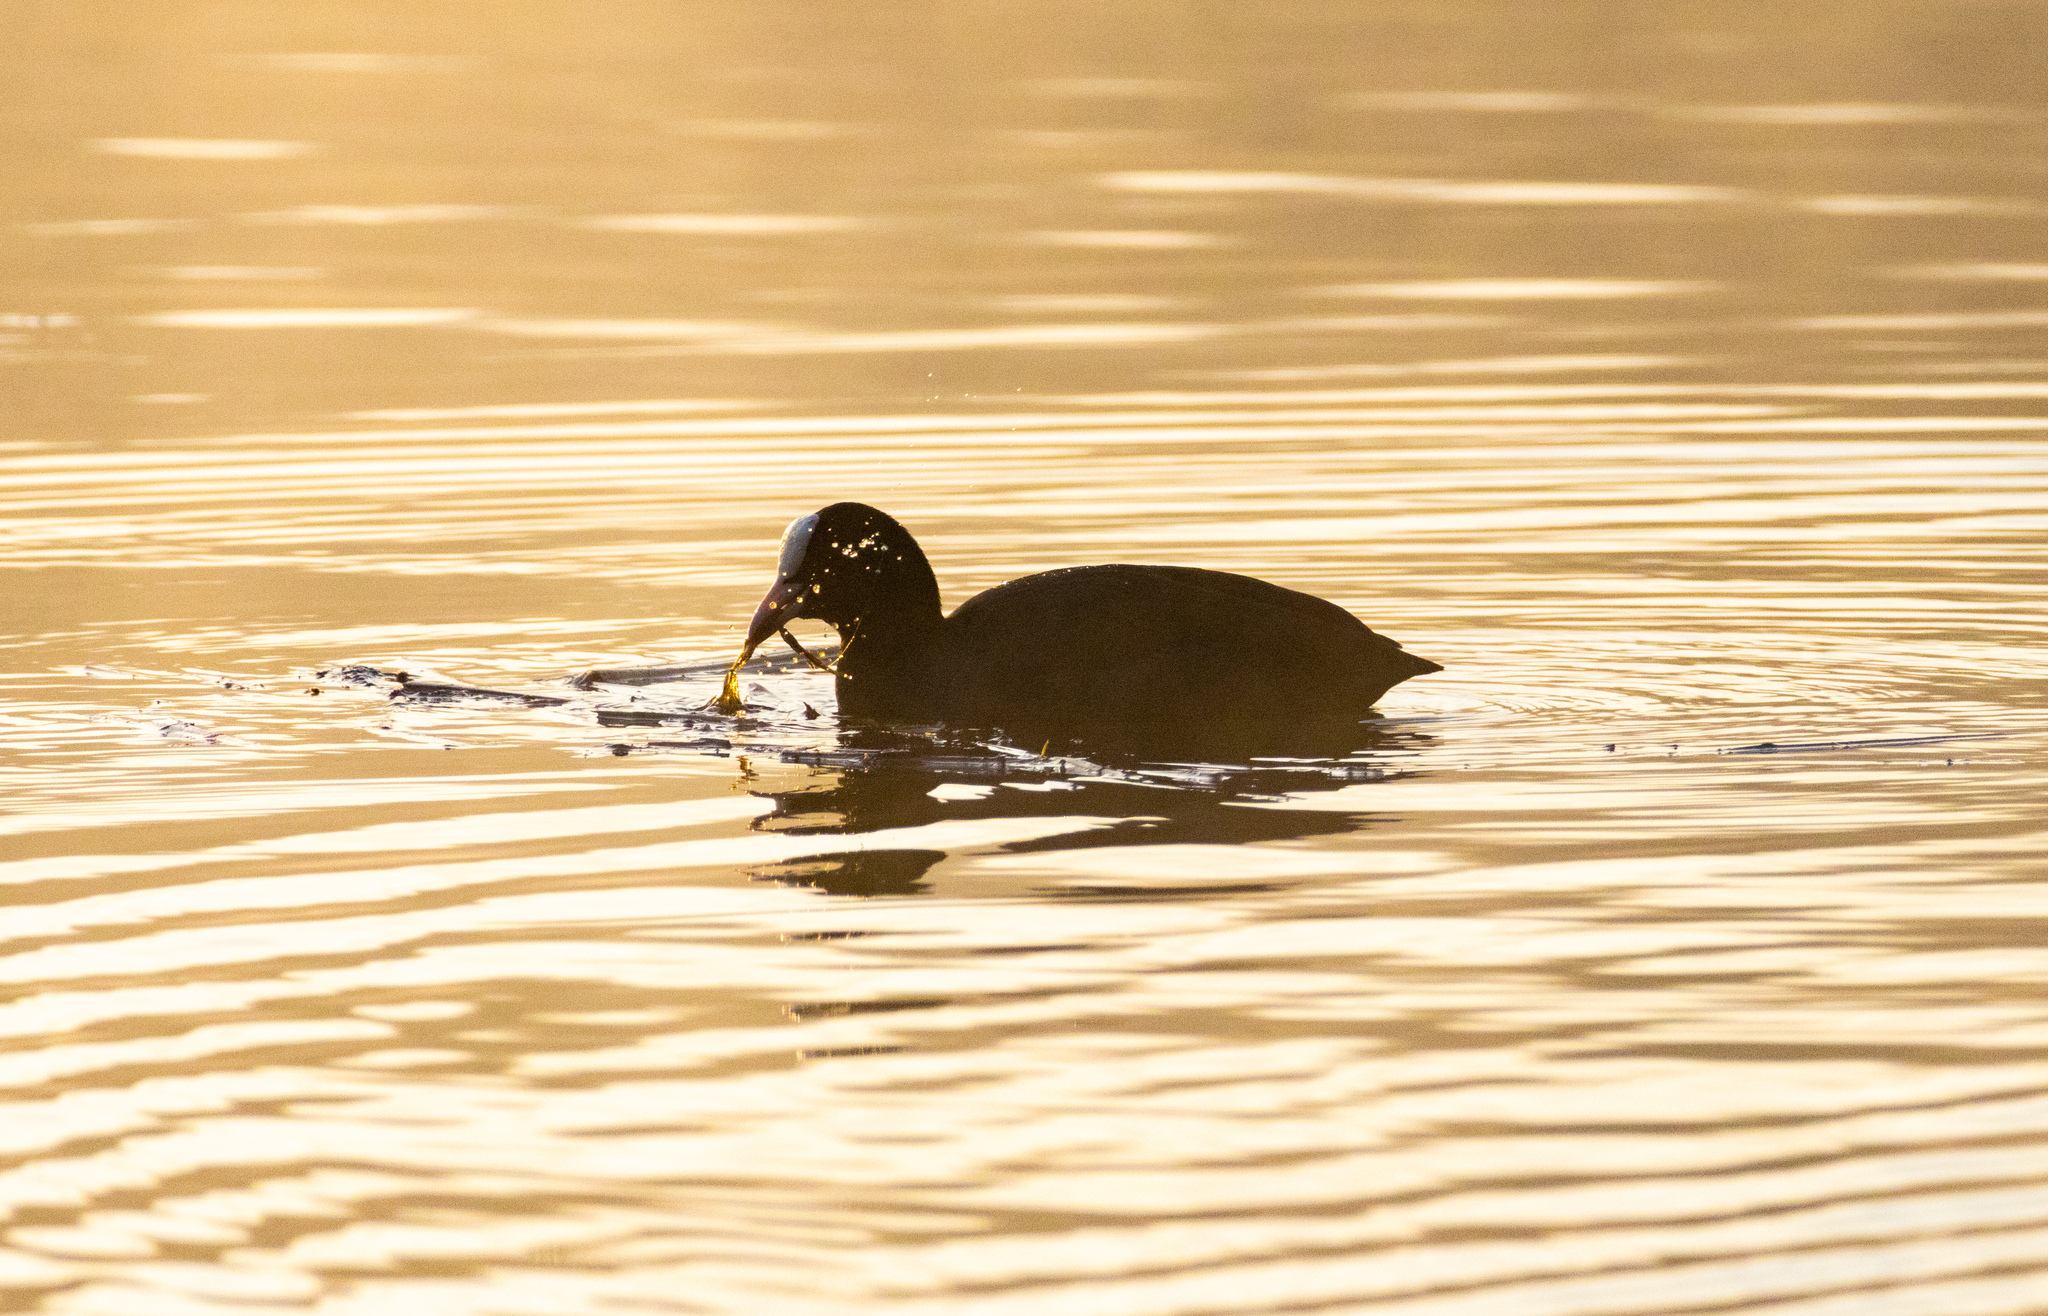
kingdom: Animalia
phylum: Chordata
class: Aves
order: Gruiformes
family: Rallidae
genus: Fulica
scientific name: Fulica atra
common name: Eurasian coot
